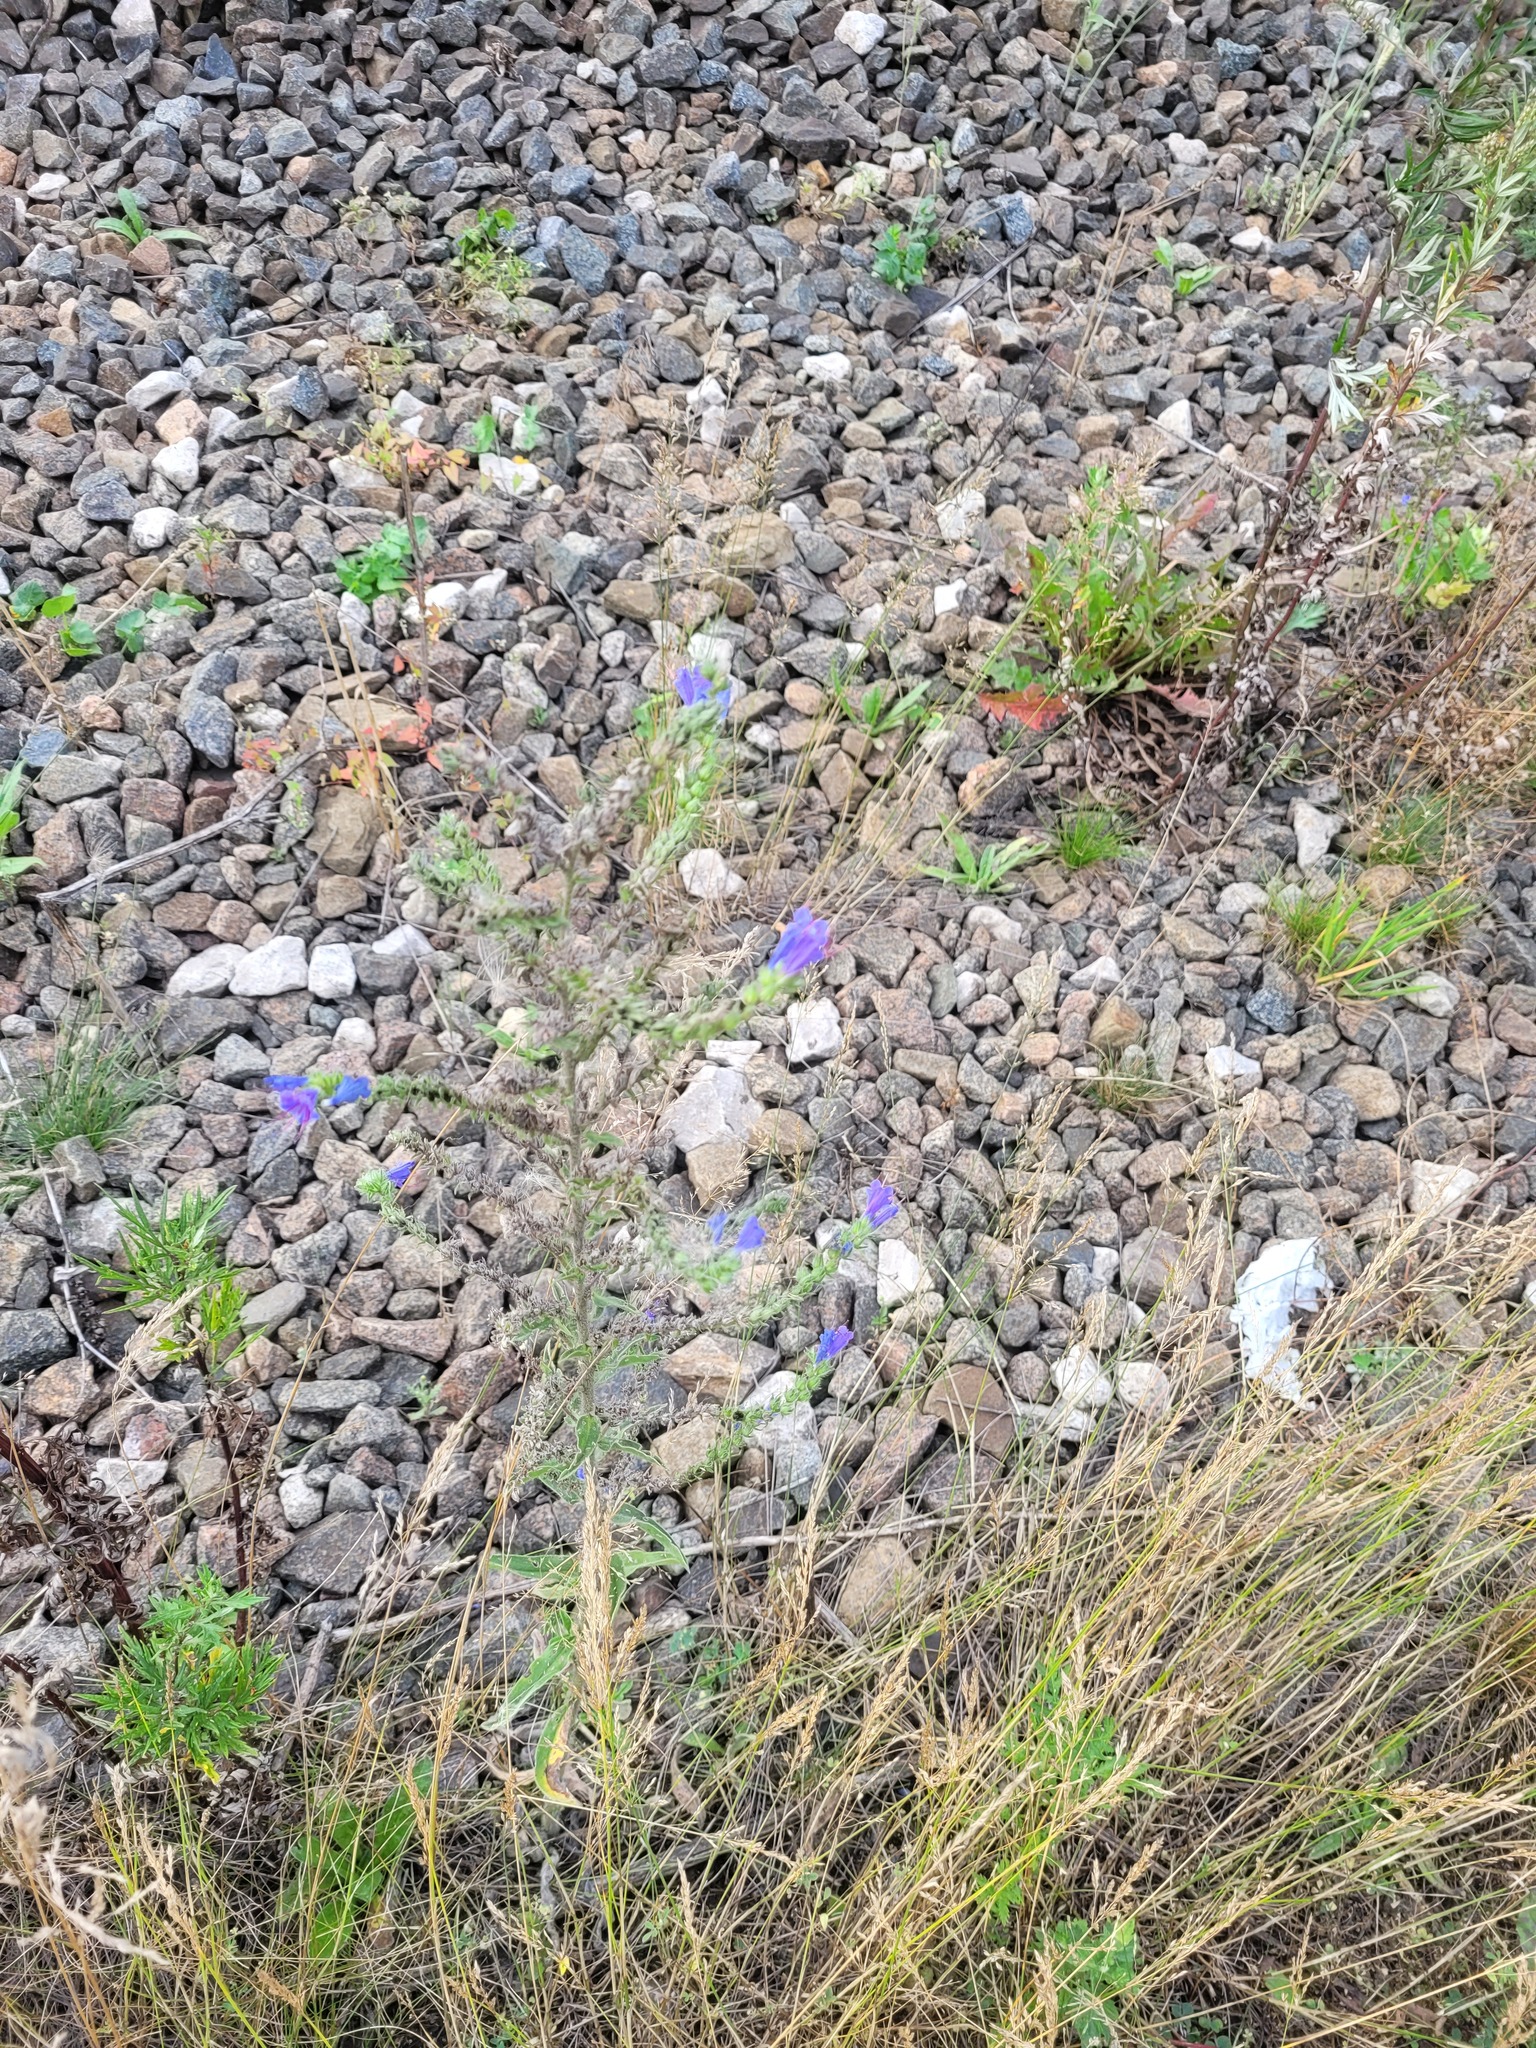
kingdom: Plantae
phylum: Tracheophyta
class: Magnoliopsida
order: Boraginales
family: Boraginaceae
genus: Echium
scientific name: Echium vulgare
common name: Common viper's bugloss
